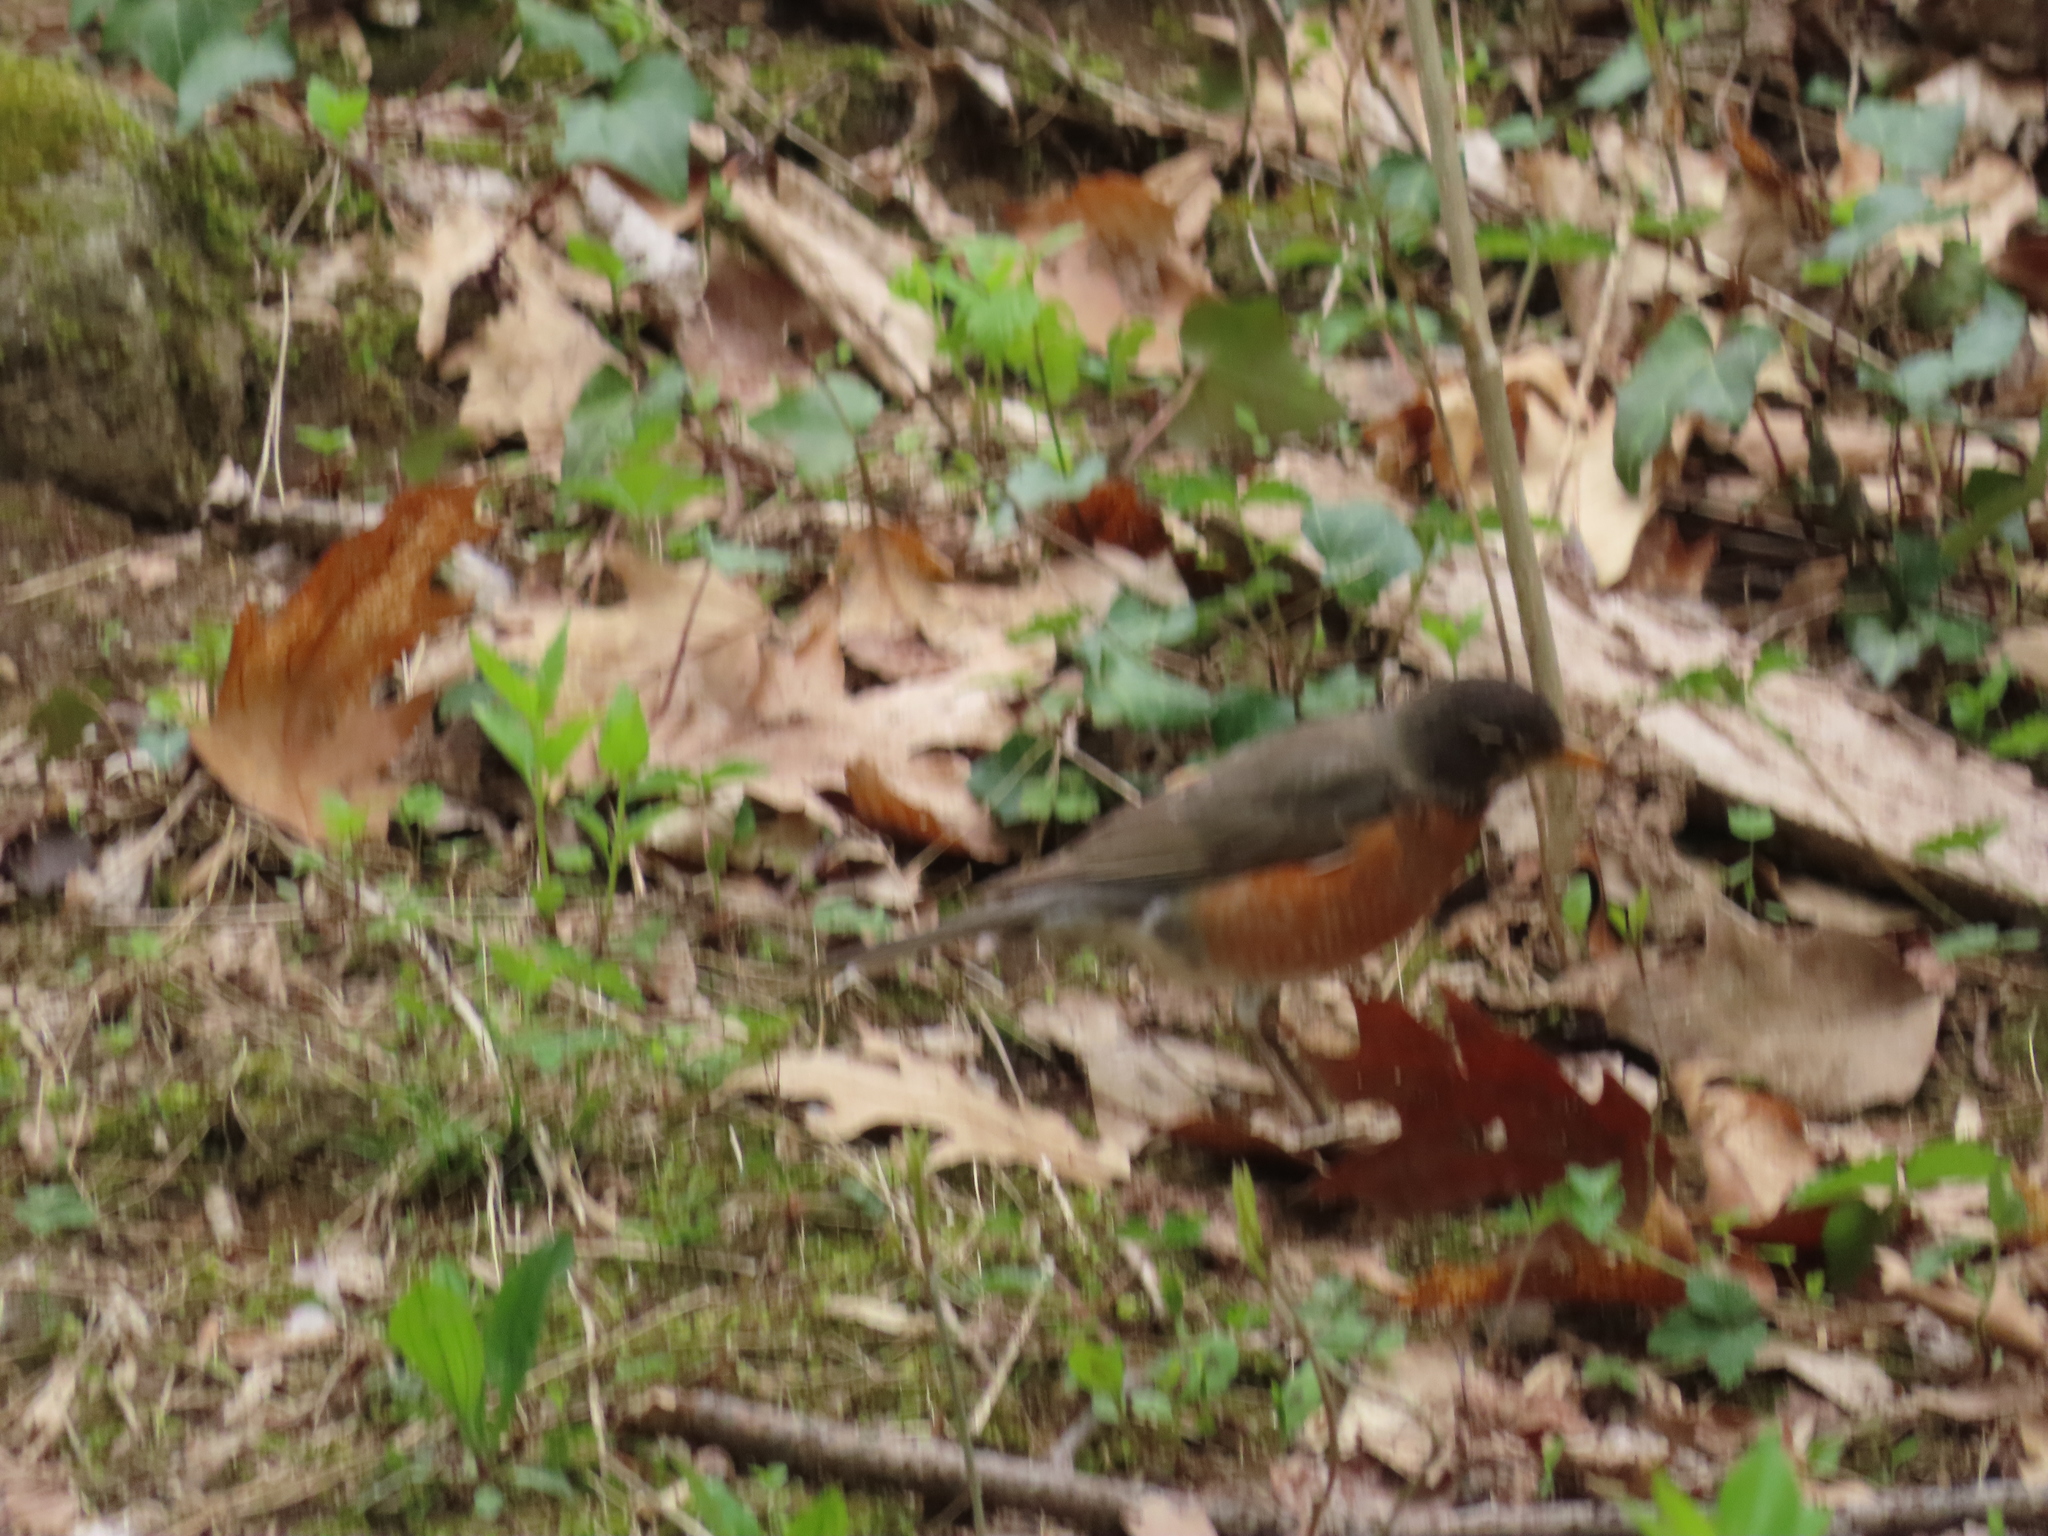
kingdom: Animalia
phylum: Chordata
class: Aves
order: Passeriformes
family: Turdidae
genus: Turdus
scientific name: Turdus migratorius
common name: American robin
